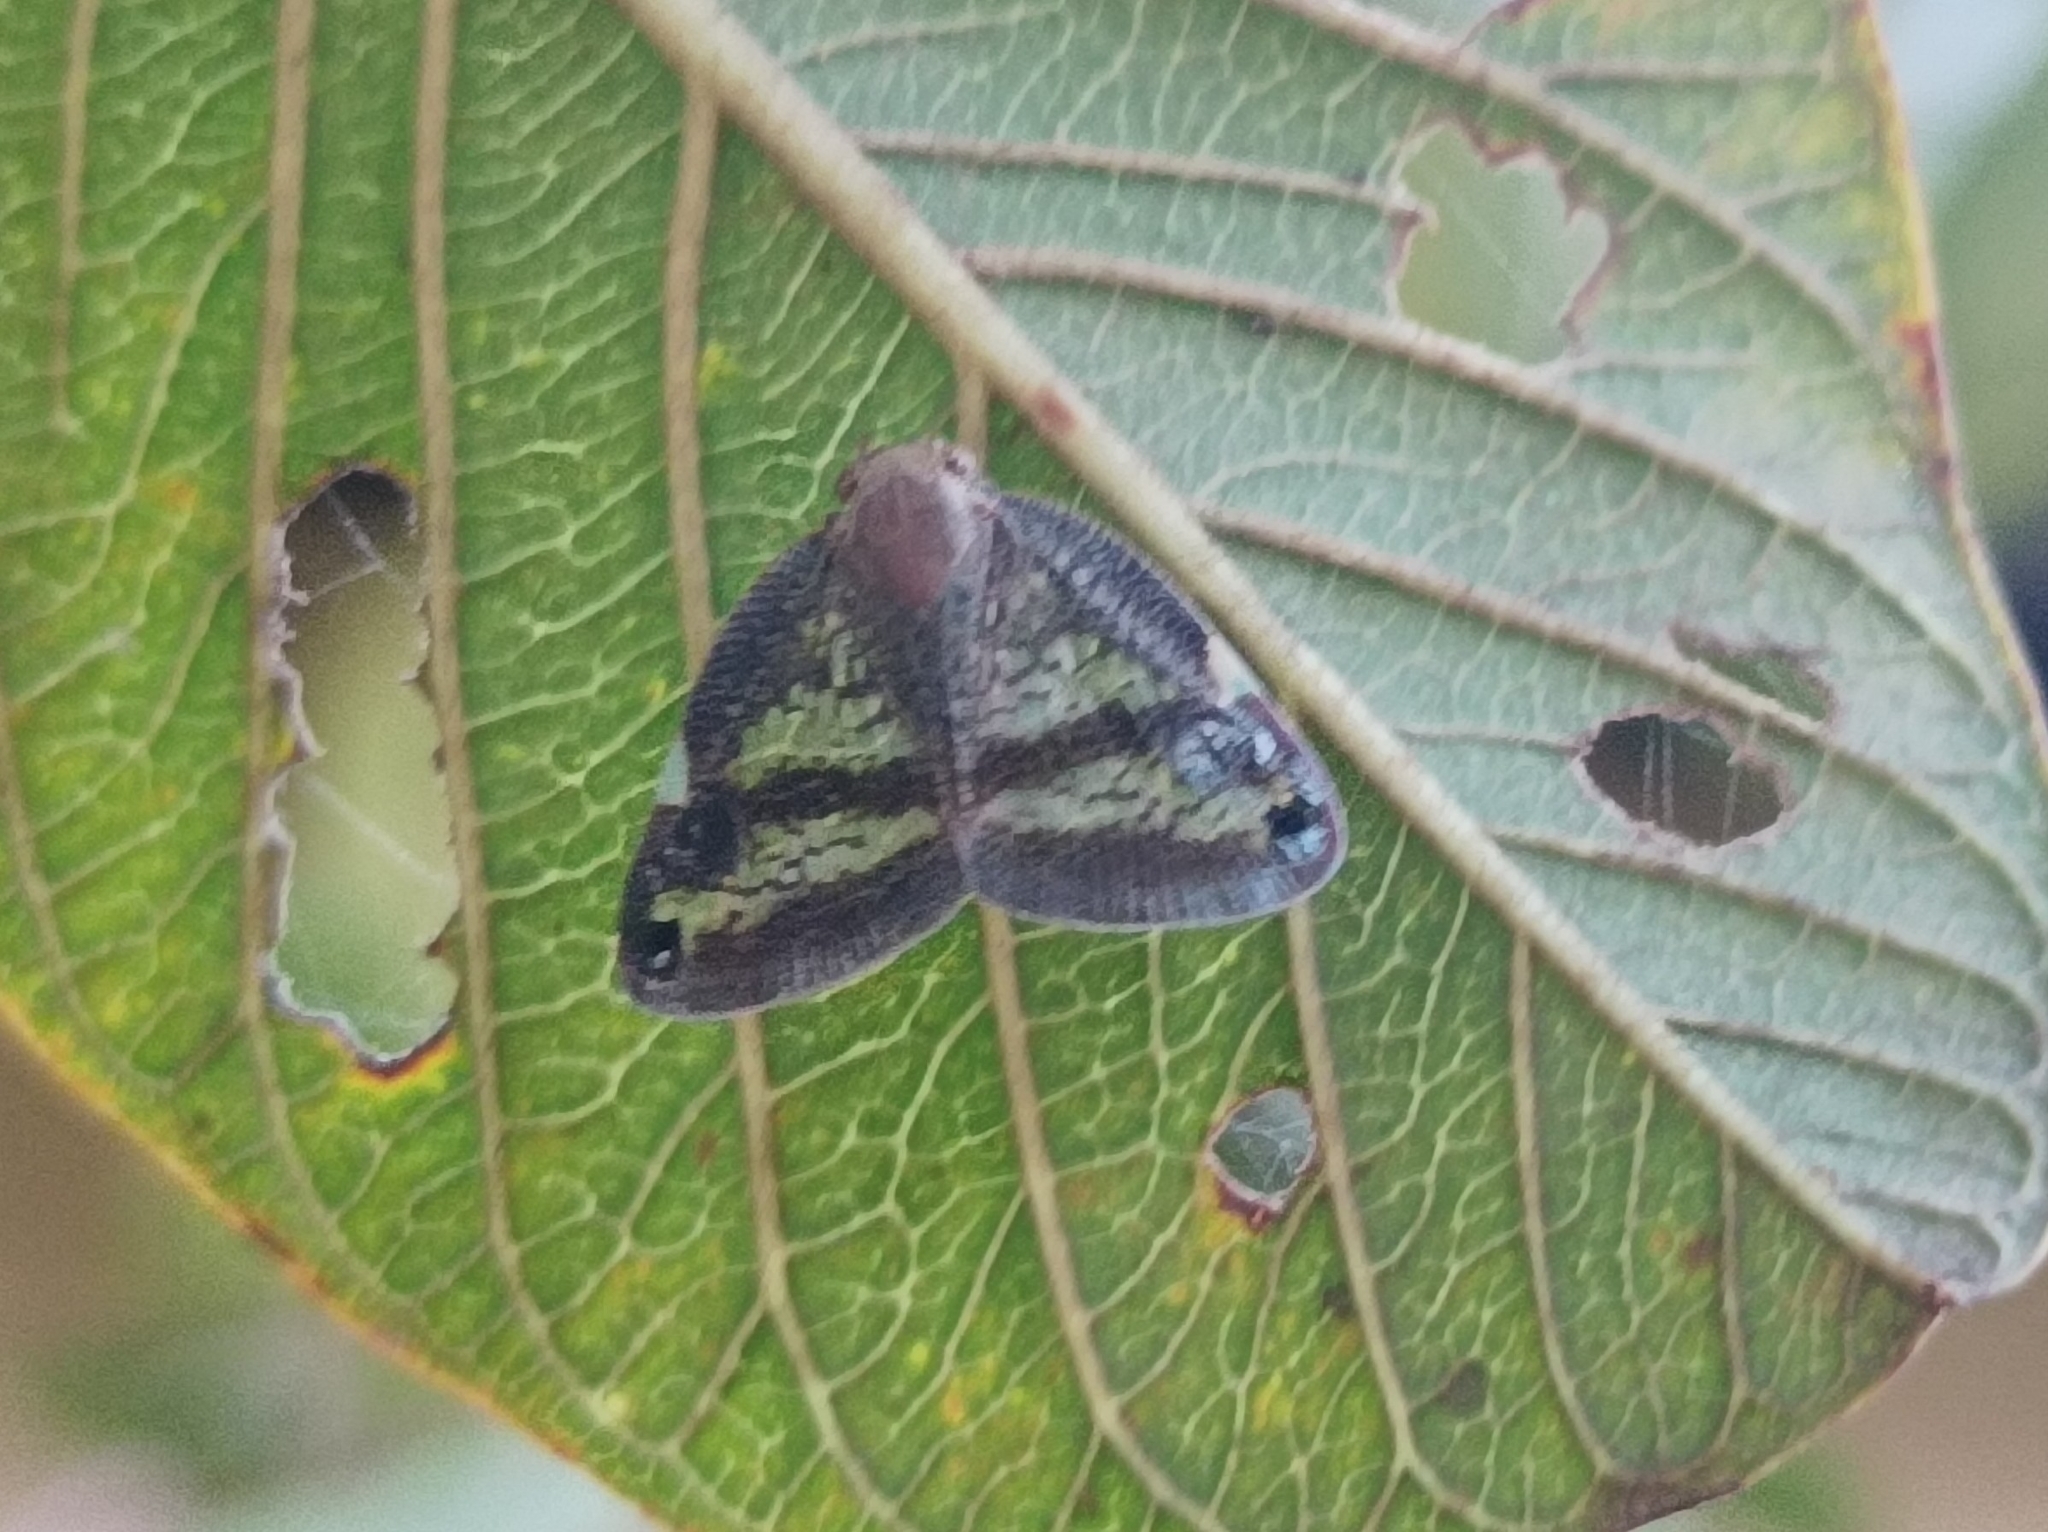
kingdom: Animalia
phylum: Arthropoda
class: Insecta
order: Hemiptera
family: Ricaniidae
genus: Parapiromis
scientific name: Parapiromis translucida
